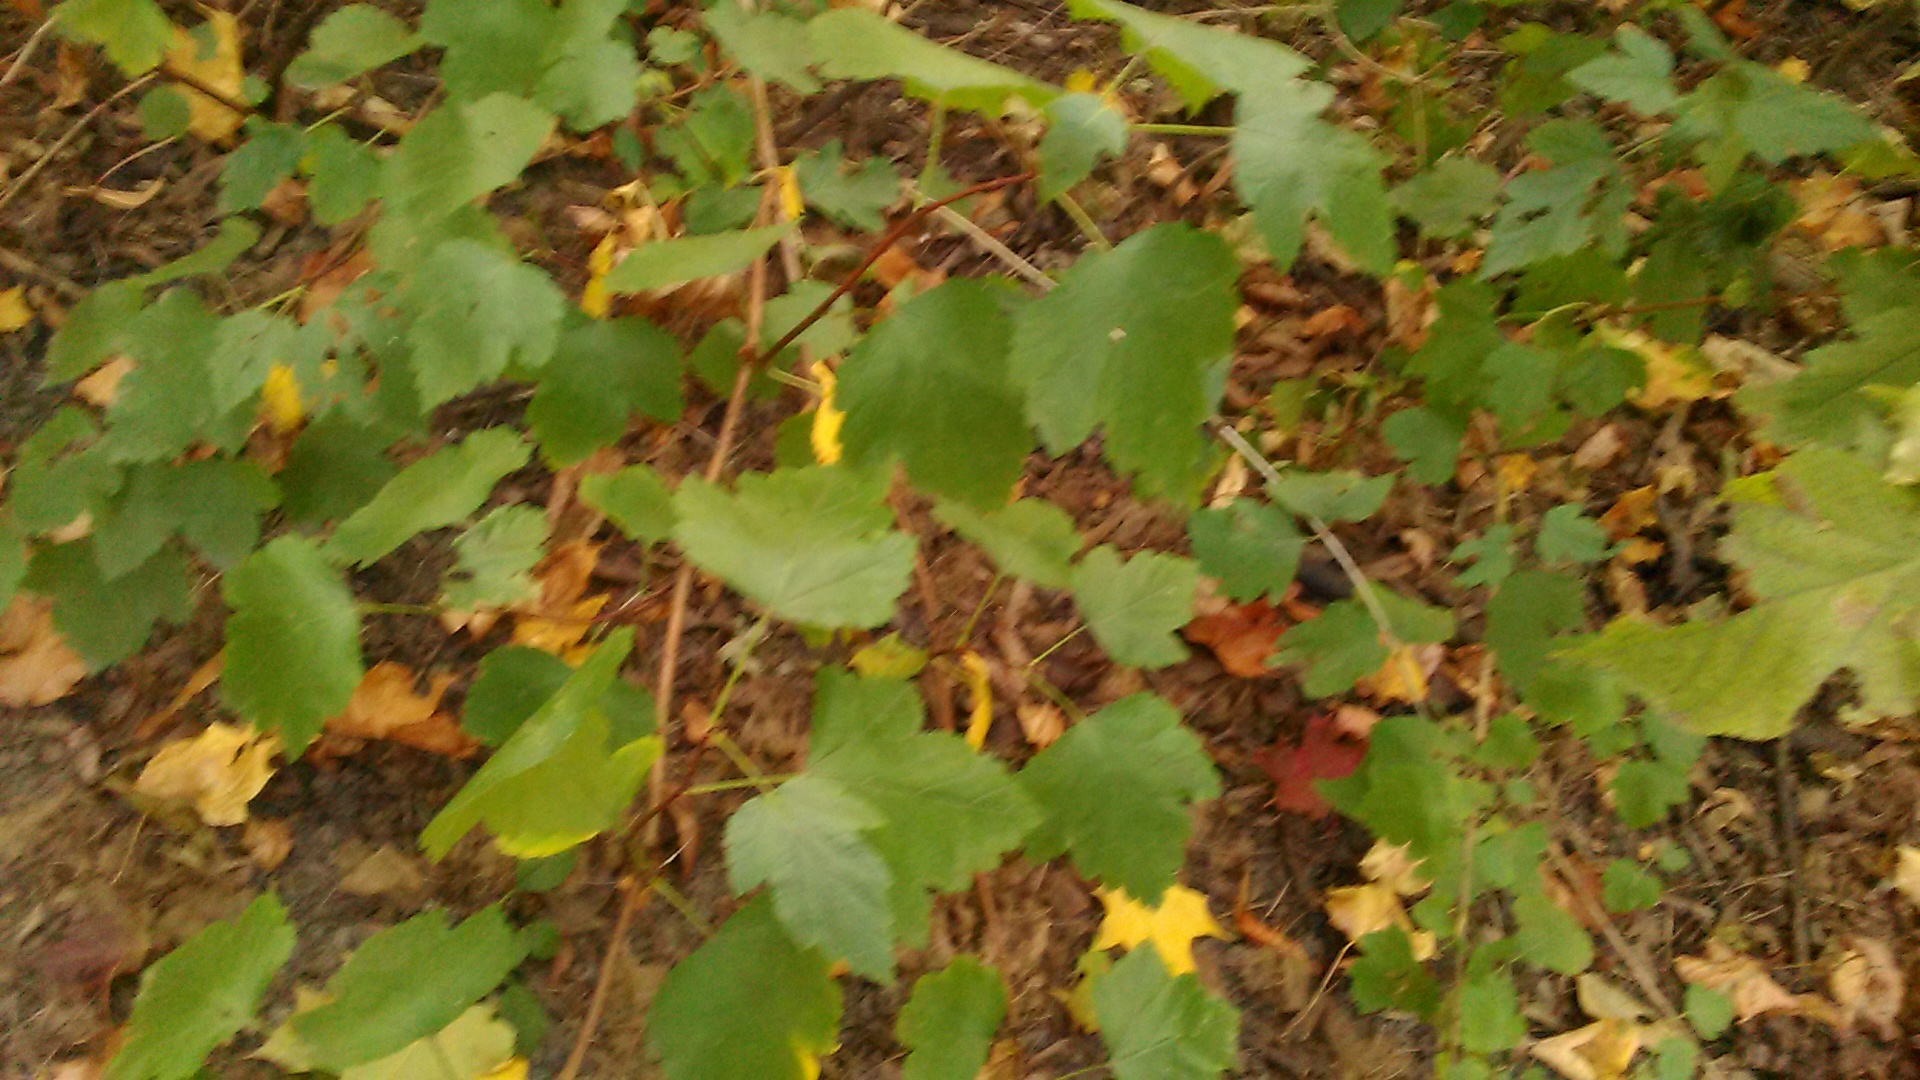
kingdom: Plantae
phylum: Tracheophyta
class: Magnoliopsida
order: Rosales
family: Rosaceae
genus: Physocarpus
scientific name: Physocarpus opulifolius
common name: Ninebark
